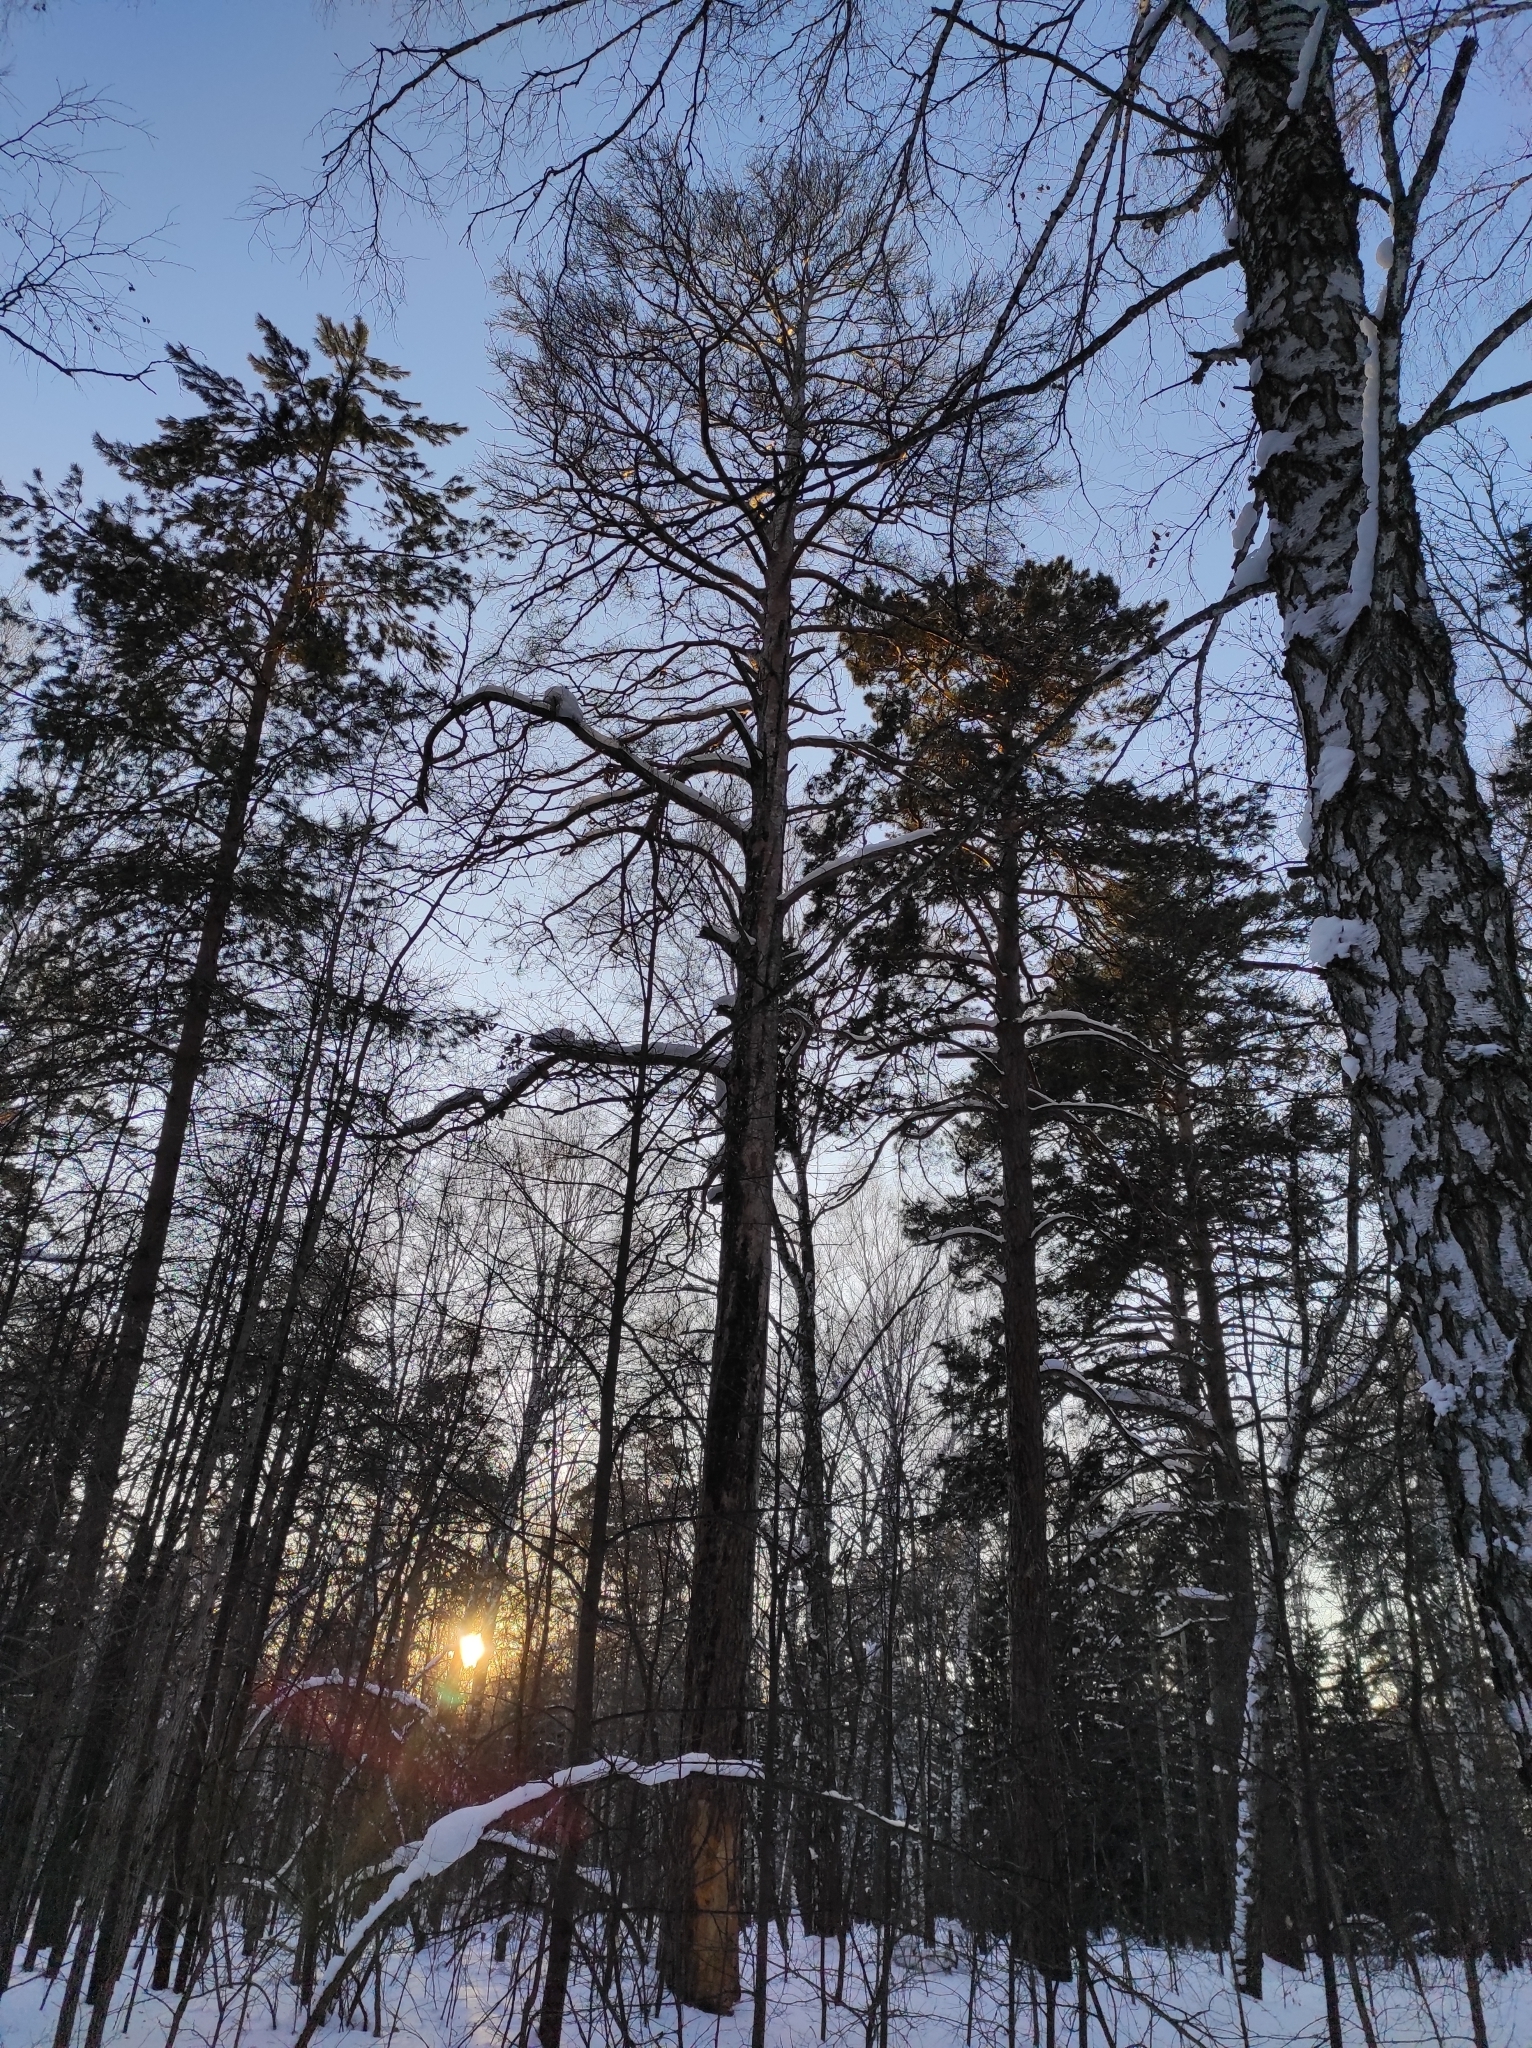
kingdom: Plantae
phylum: Tracheophyta
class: Pinopsida
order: Pinales
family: Pinaceae
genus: Pinus
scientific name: Pinus sylvestris
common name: Scots pine
